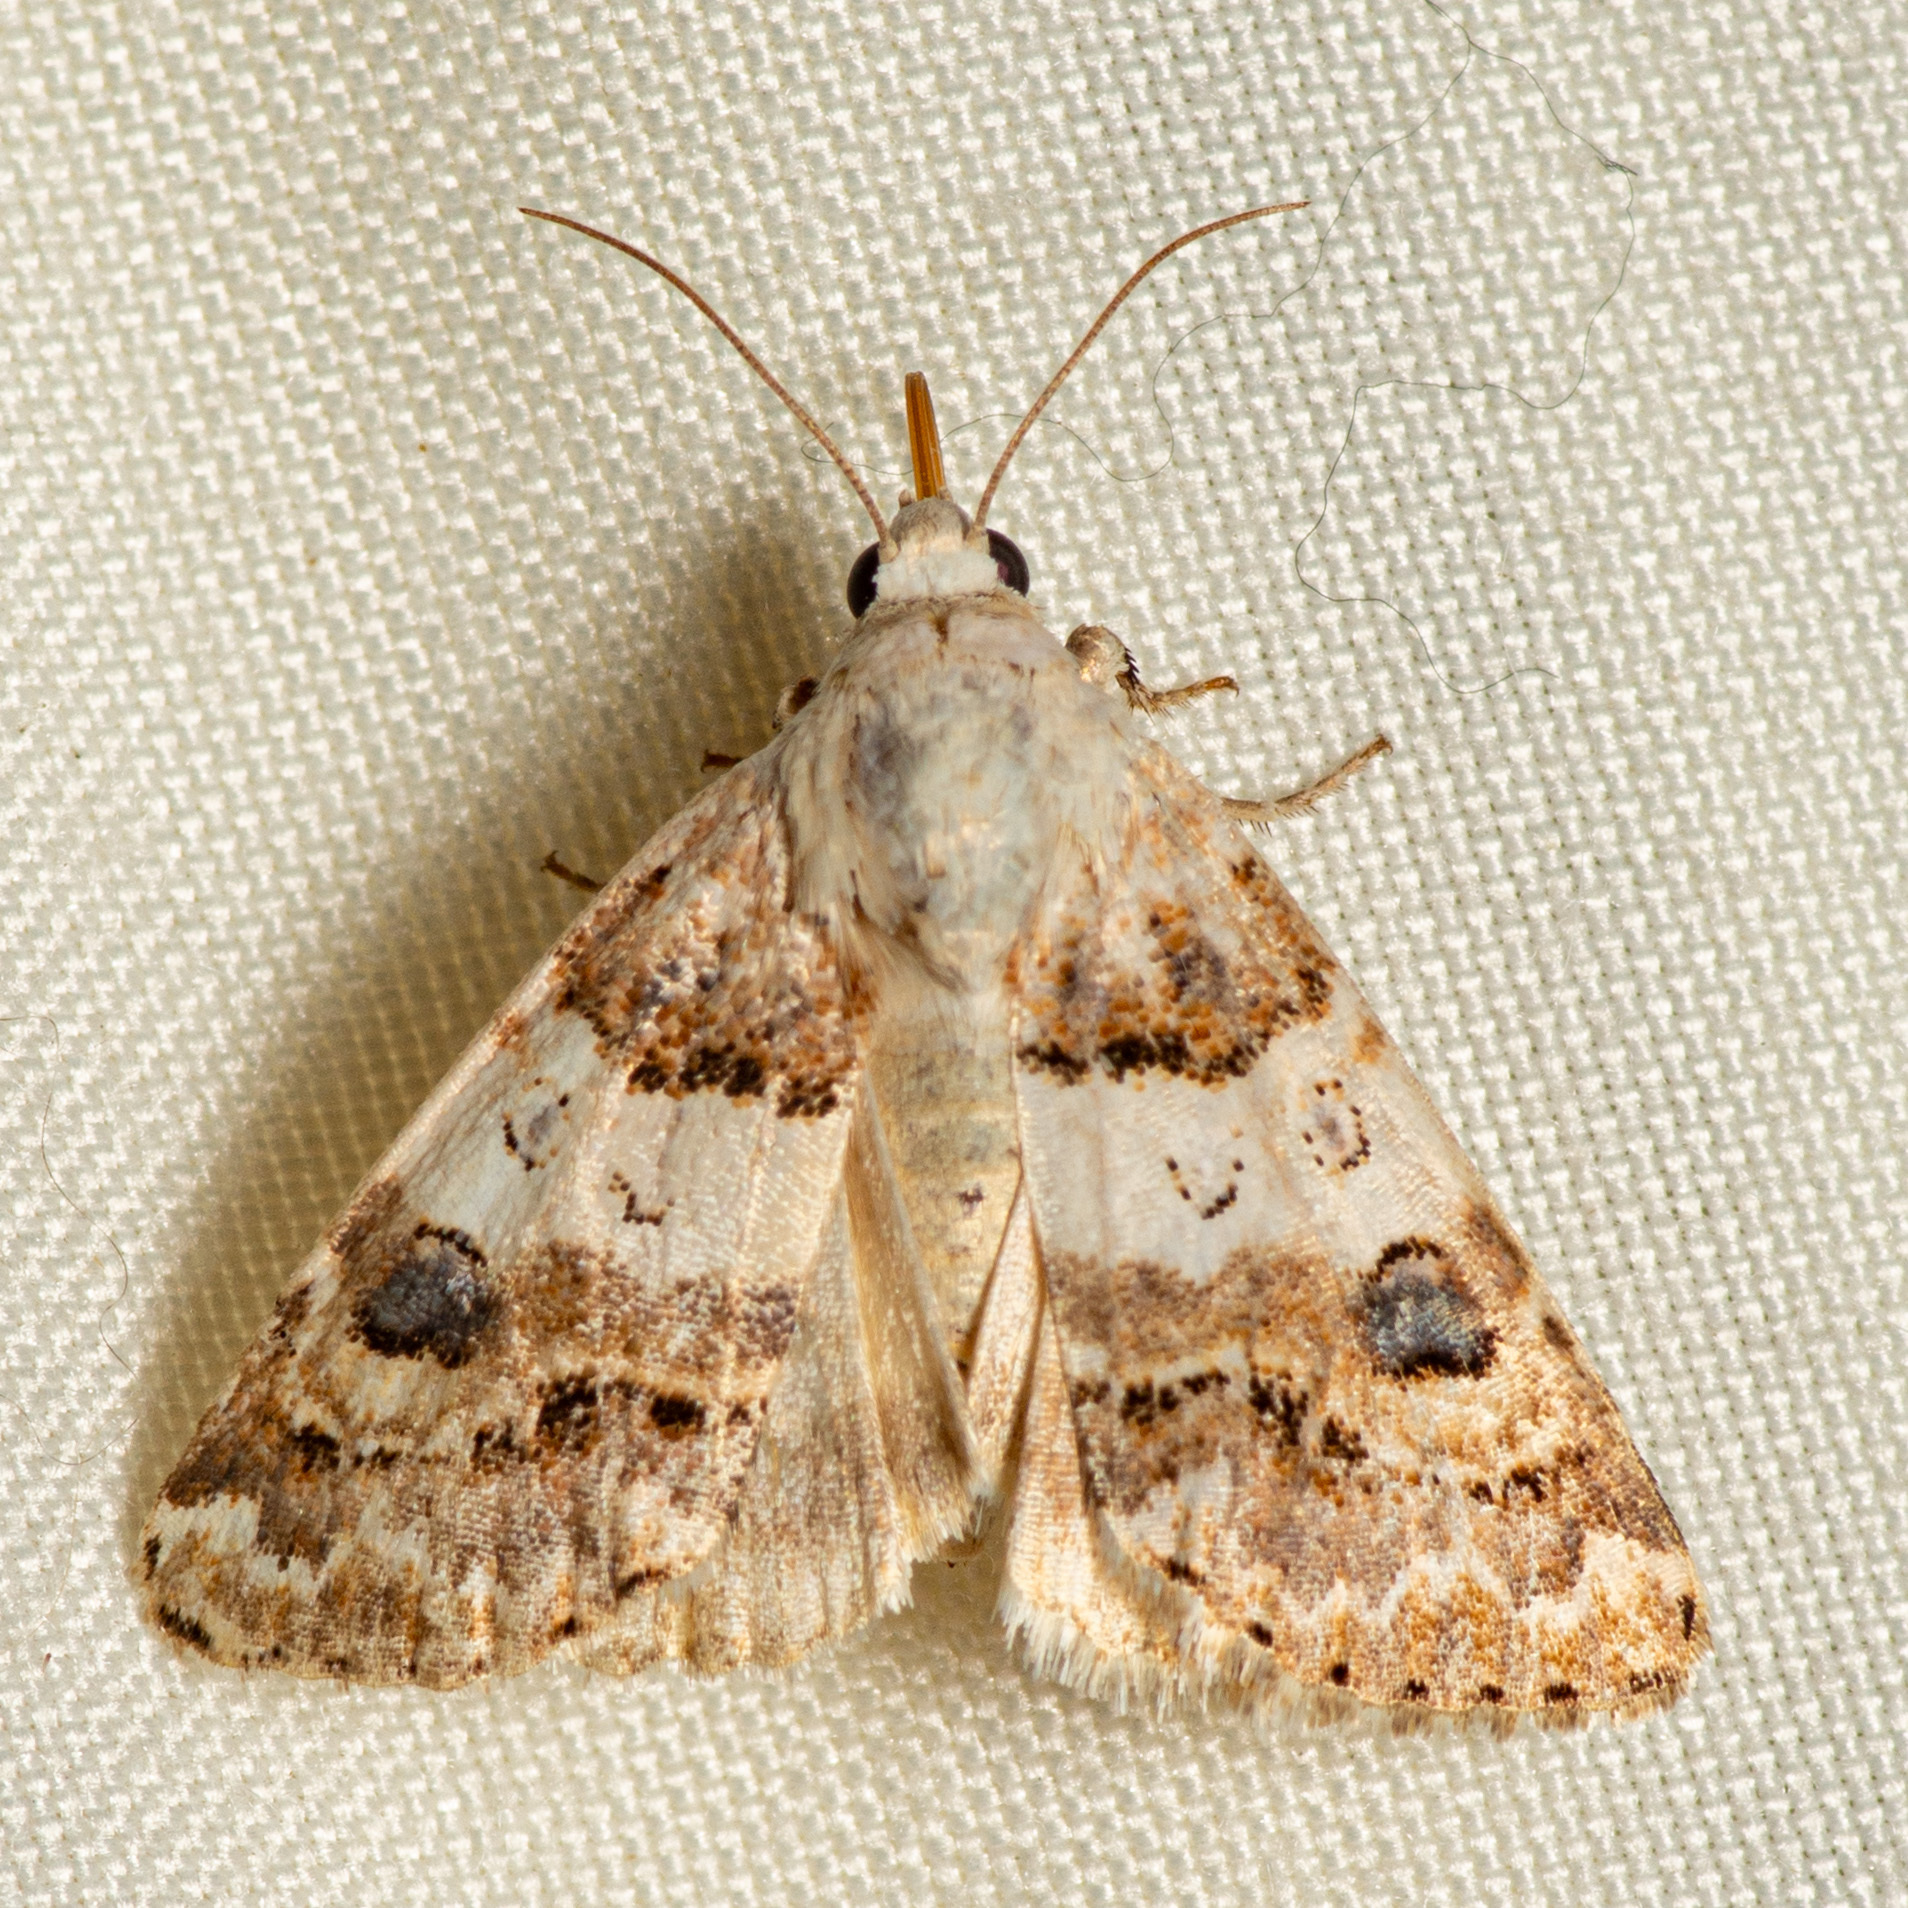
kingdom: Animalia
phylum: Arthropoda
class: Insecta
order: Lepidoptera
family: Noctuidae
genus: Schinia
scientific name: Schinia tertia
